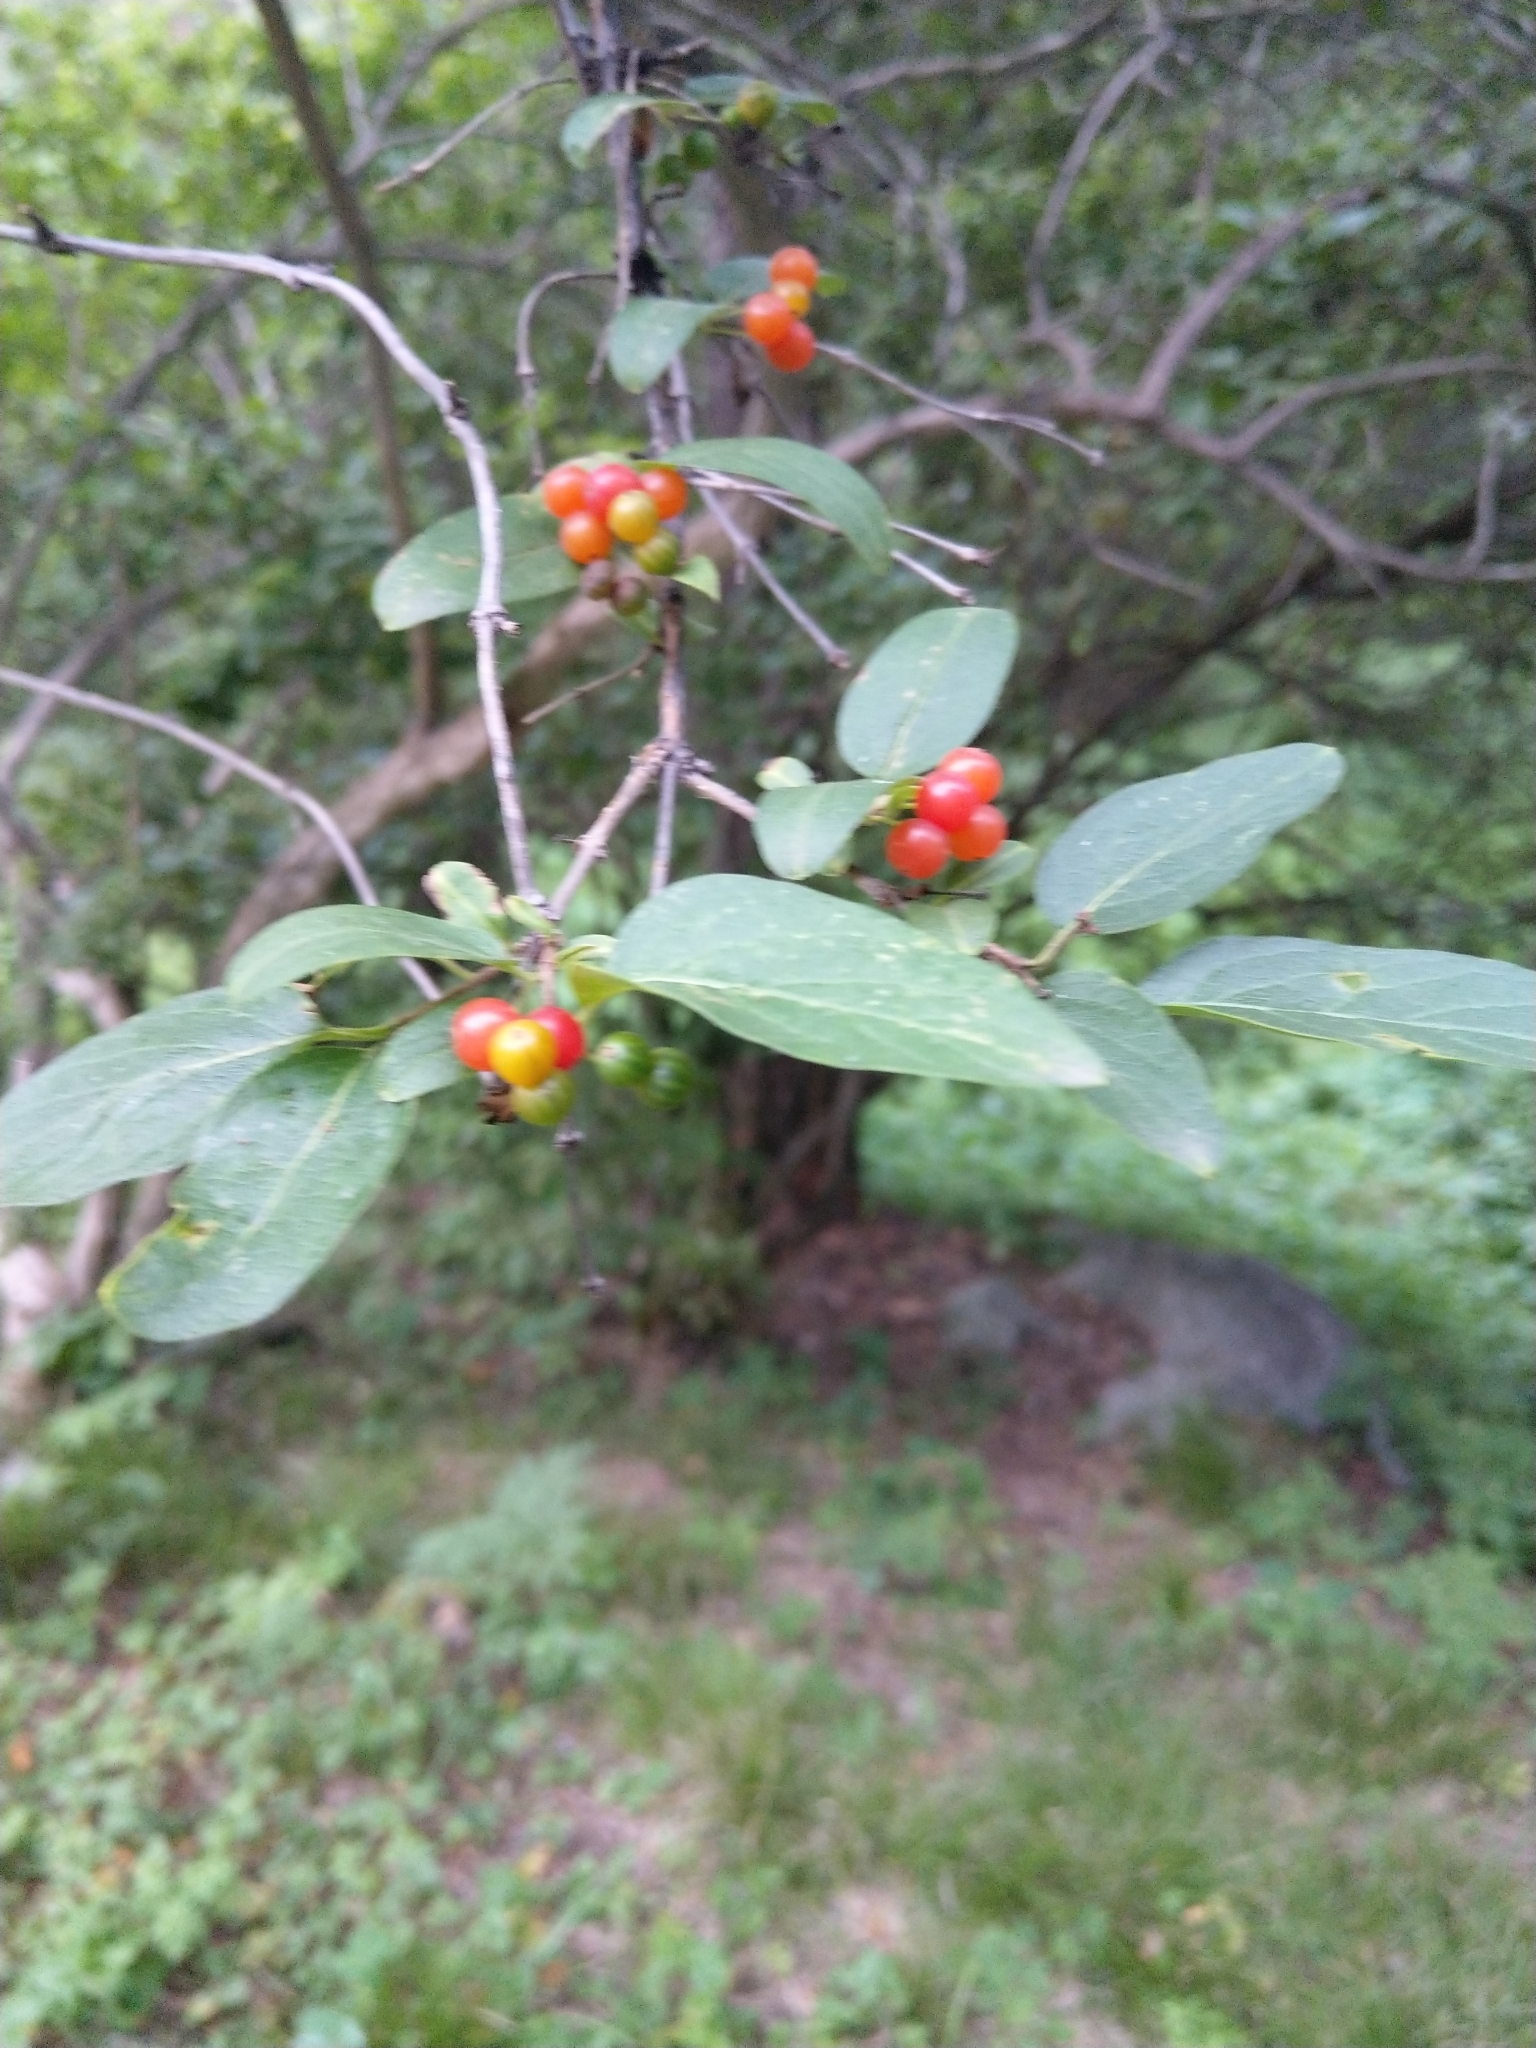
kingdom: Plantae
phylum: Tracheophyta
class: Magnoliopsida
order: Dipsacales
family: Caprifoliaceae
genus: Lonicera
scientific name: Lonicera tatarica
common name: Tatarian honeysuckle
